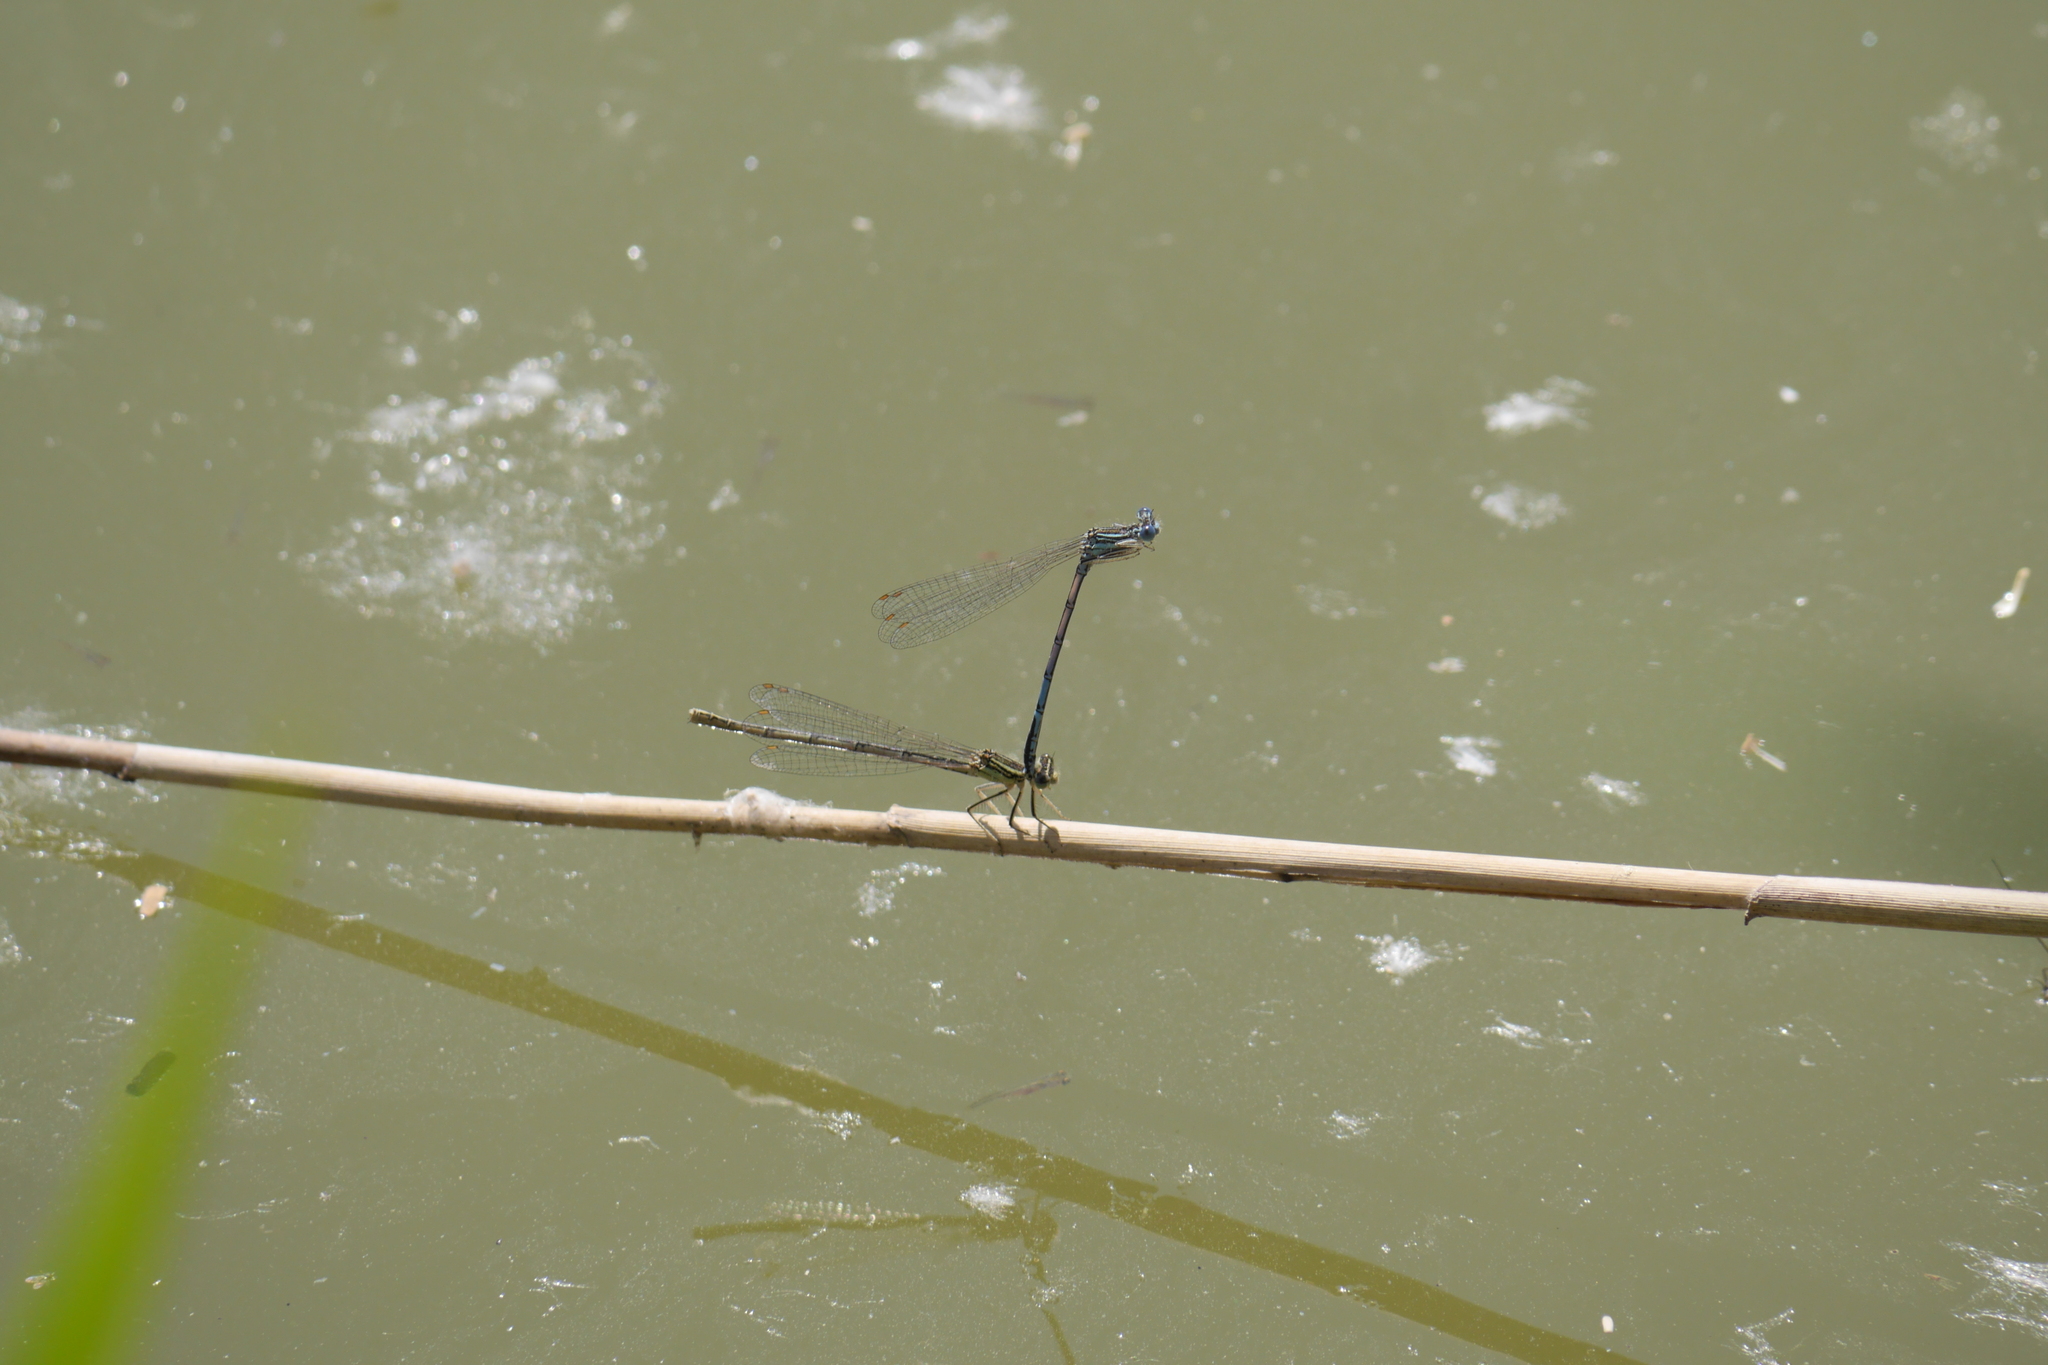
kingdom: Animalia
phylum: Arthropoda
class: Insecta
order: Odonata
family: Platycnemididae
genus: Platycnemis
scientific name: Platycnemis pennipes
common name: White-legged damselfly
